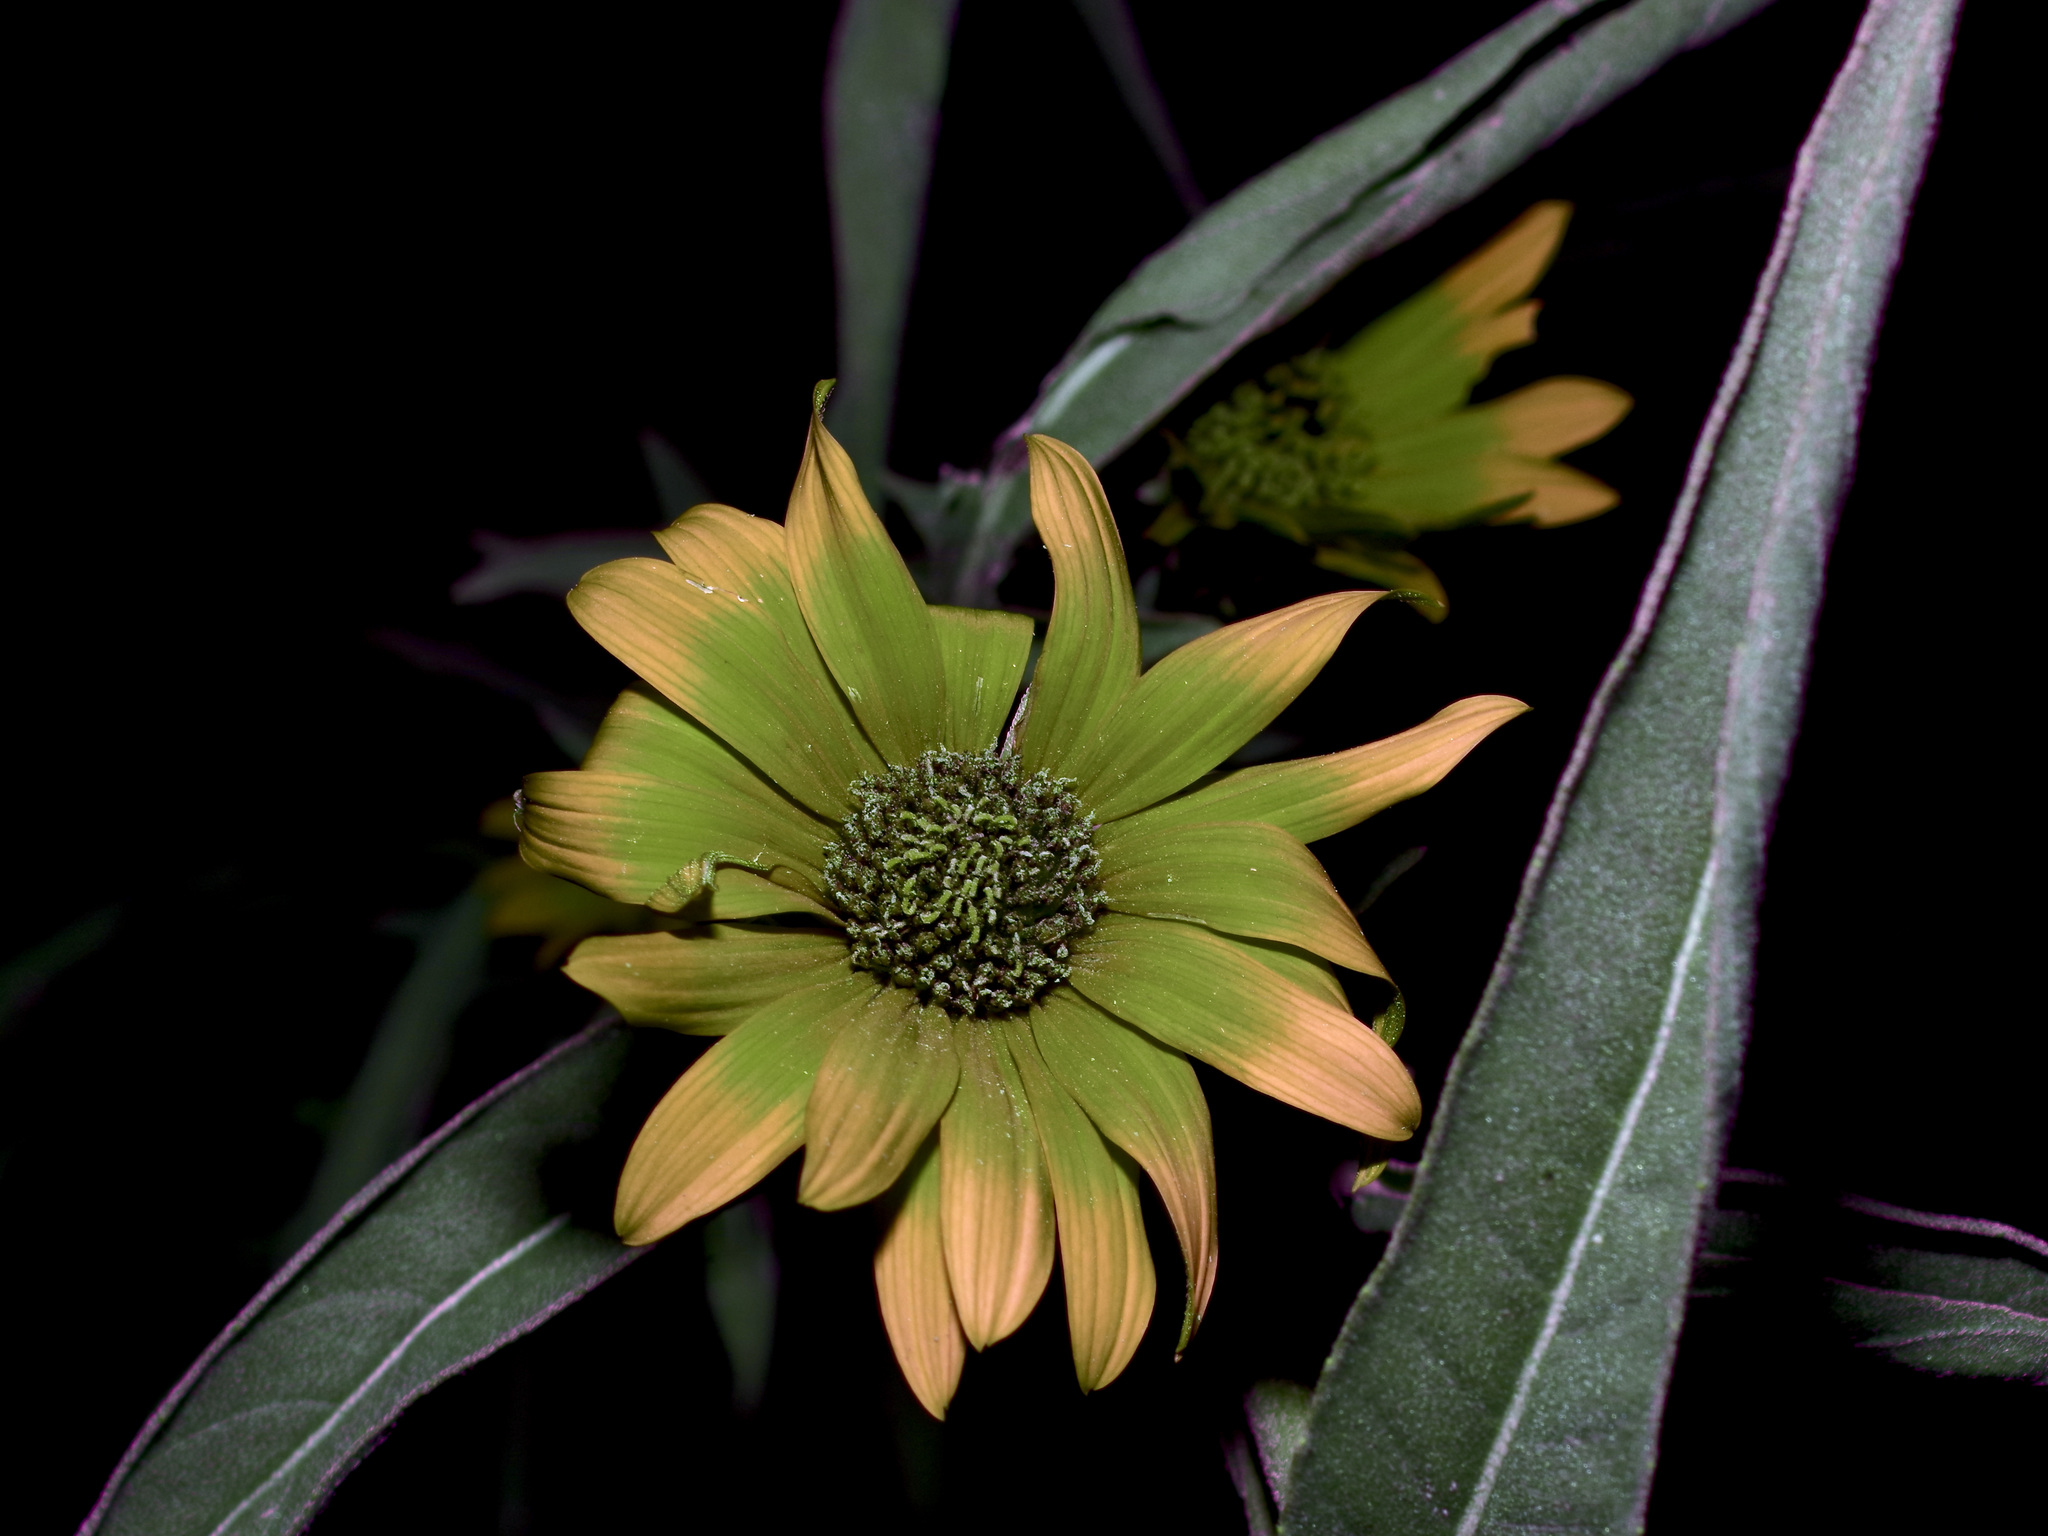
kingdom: Plantae
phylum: Tracheophyta
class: Magnoliopsida
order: Asterales
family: Asteraceae
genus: Helianthus
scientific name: Helianthus maximiliani
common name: Maximilian's sunflower
